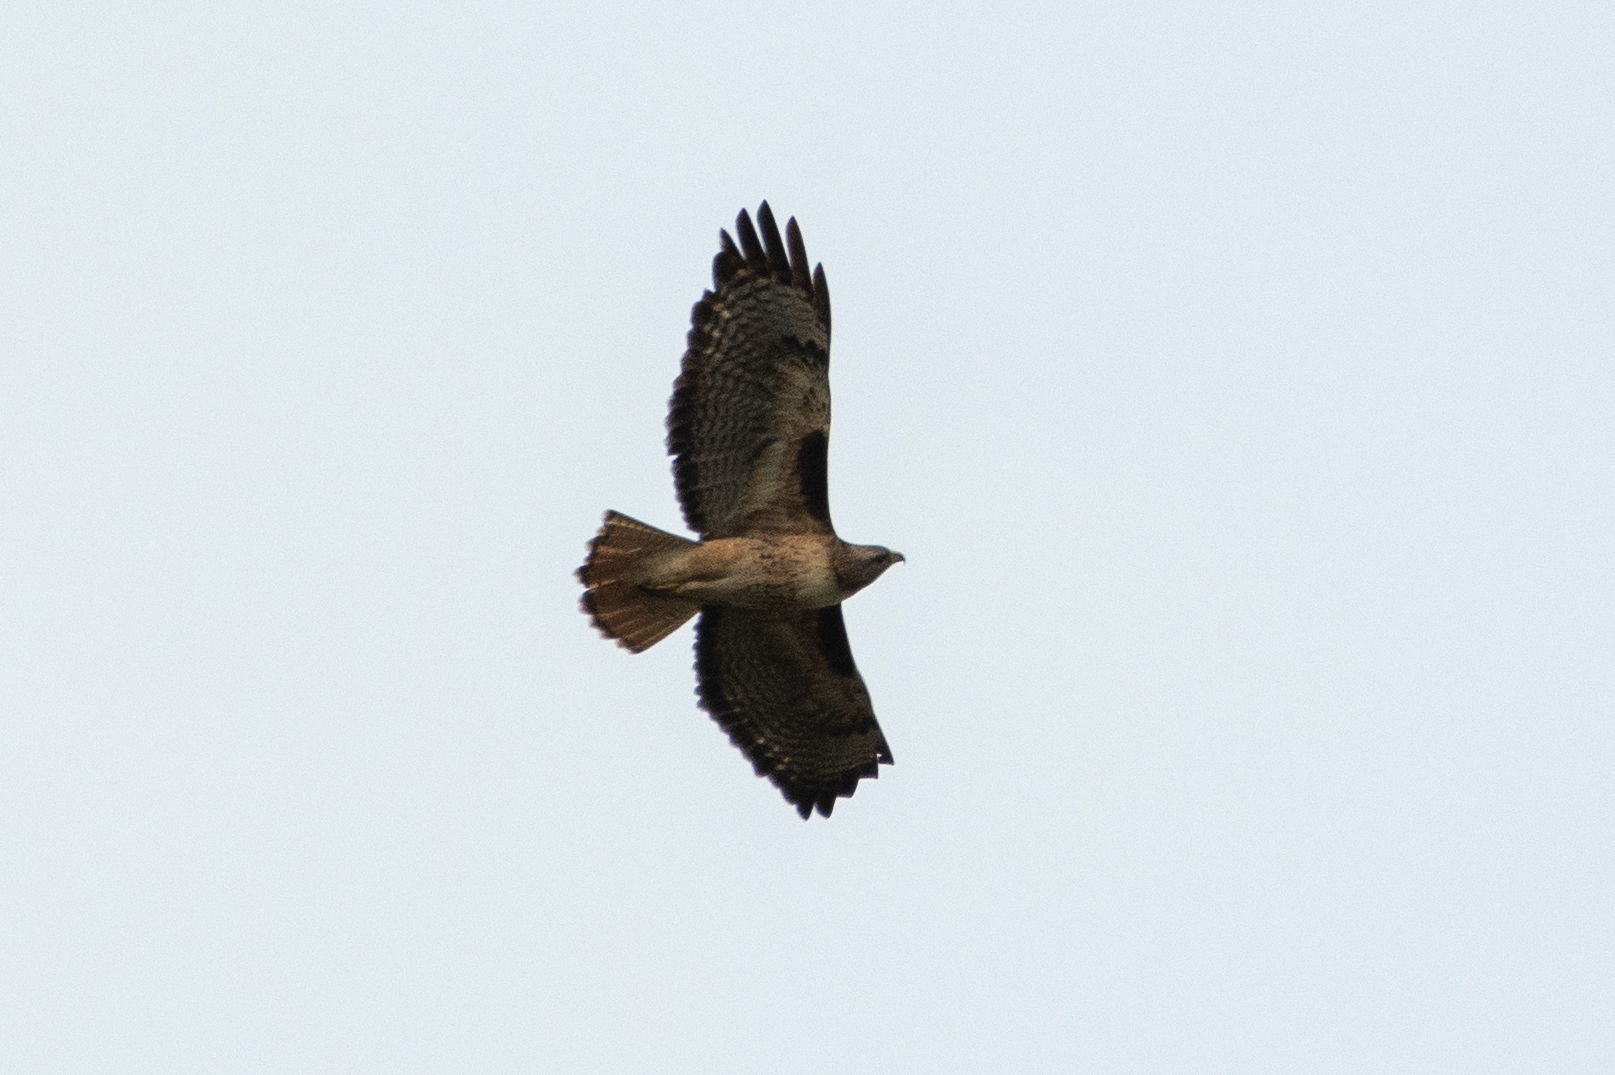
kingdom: Animalia
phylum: Chordata
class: Aves
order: Accipitriformes
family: Accipitridae
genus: Buteo
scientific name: Buteo jamaicensis
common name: Red-tailed hawk
